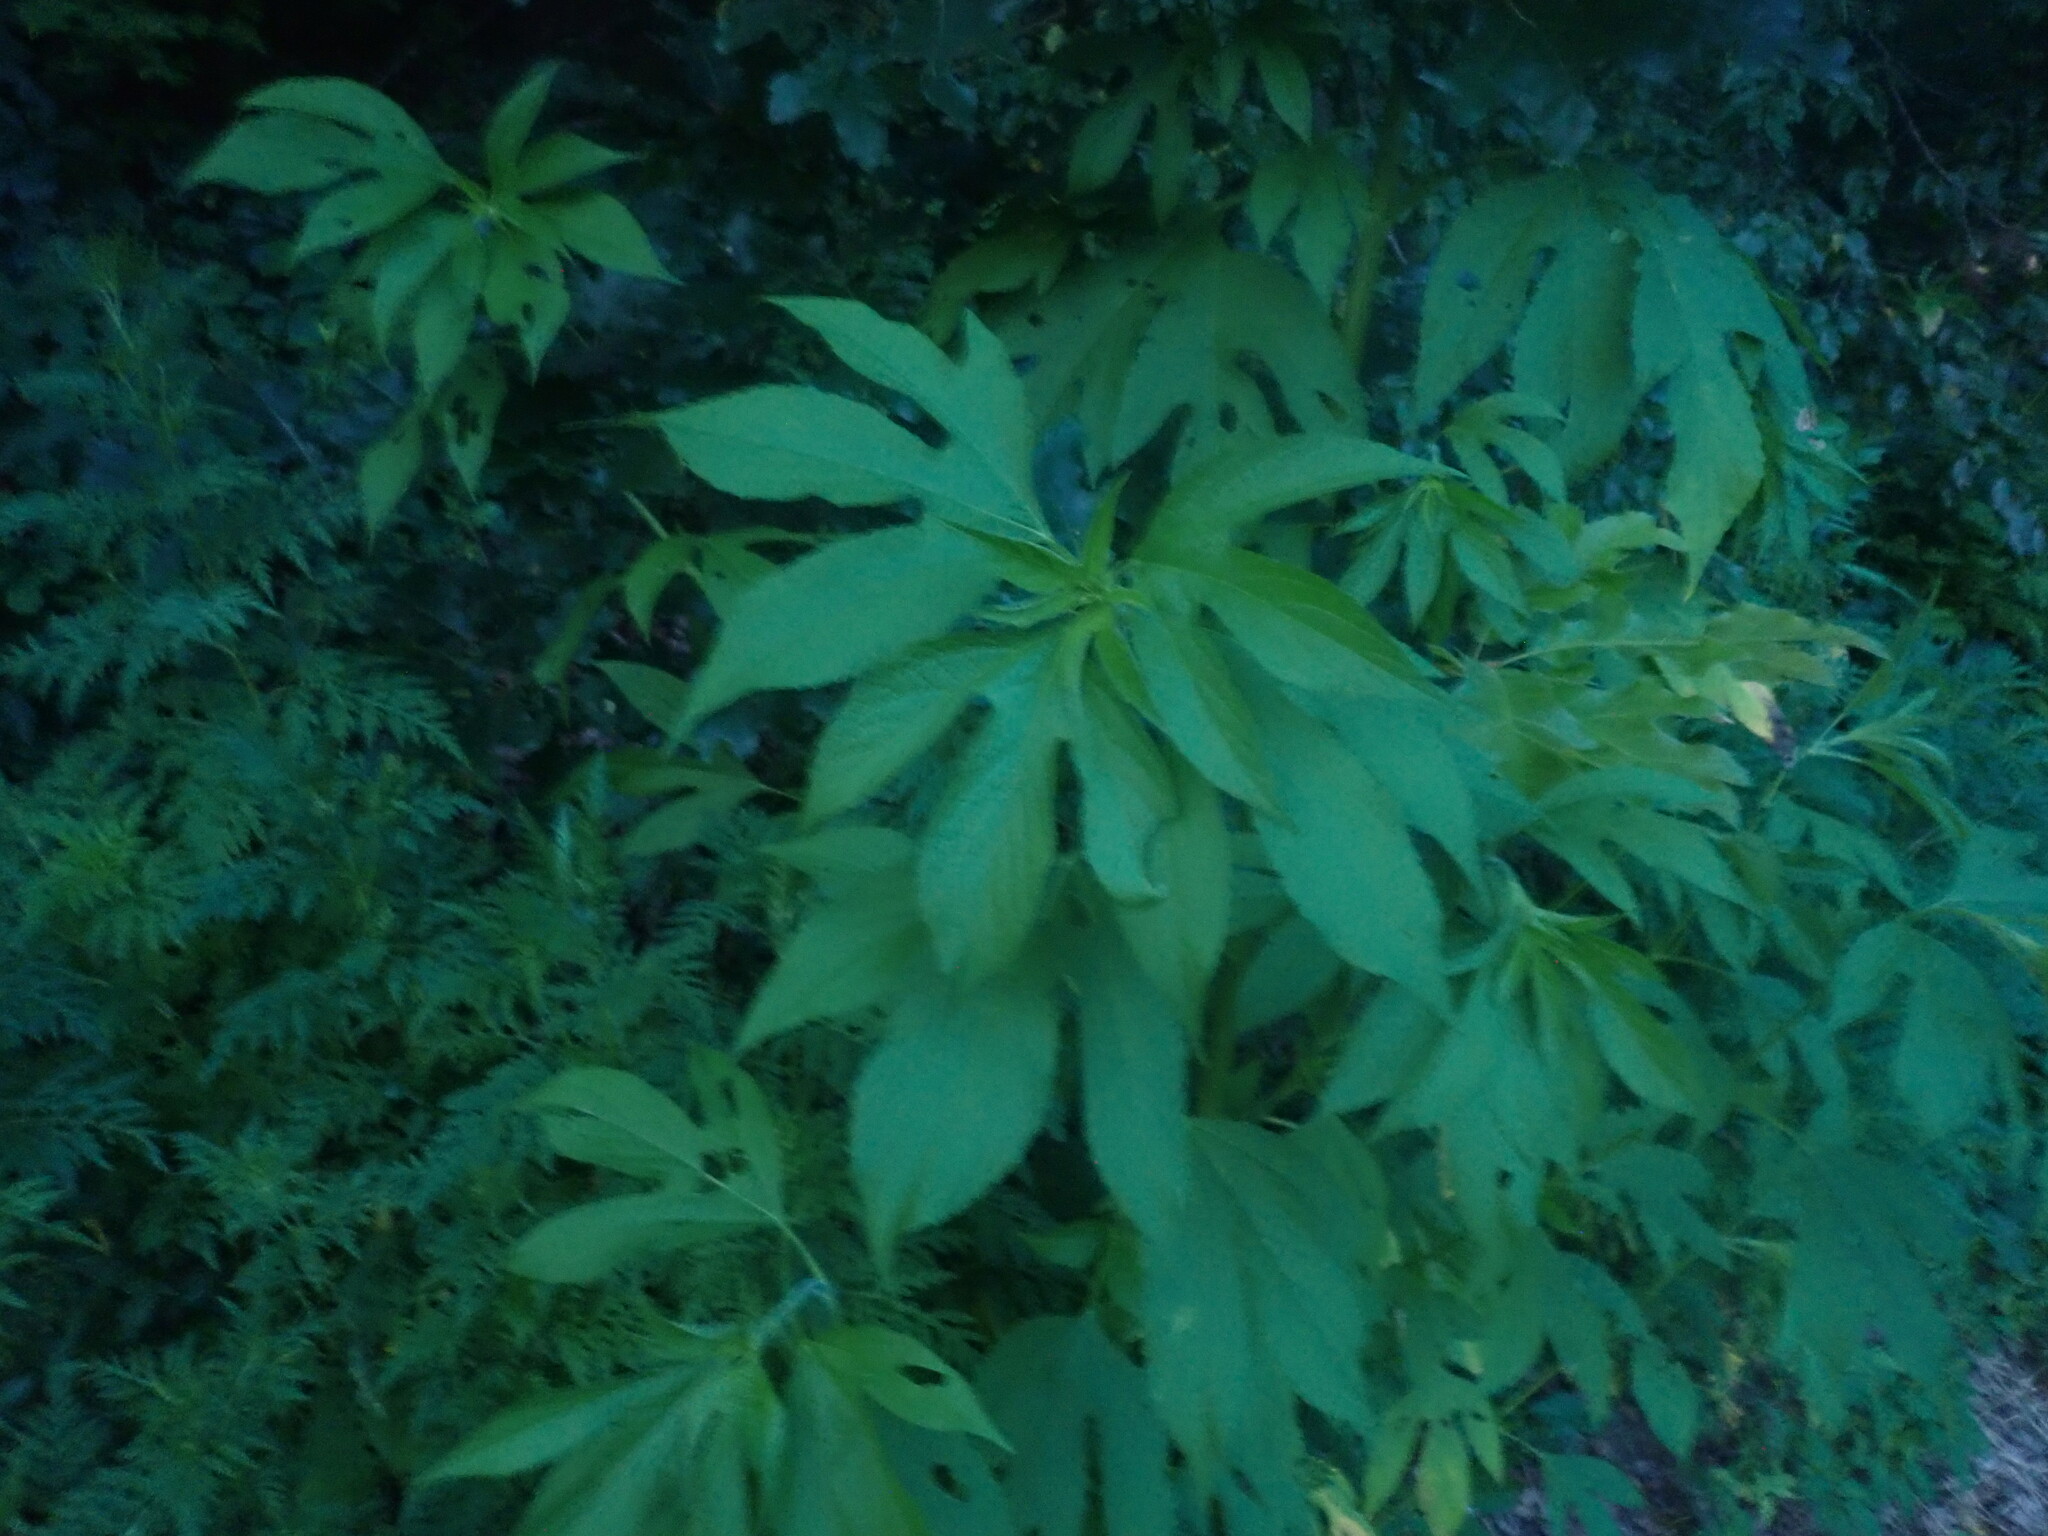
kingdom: Plantae
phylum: Tracheophyta
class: Magnoliopsida
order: Asterales
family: Asteraceae
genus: Ambrosia
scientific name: Ambrosia trifida
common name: Giant ragweed
